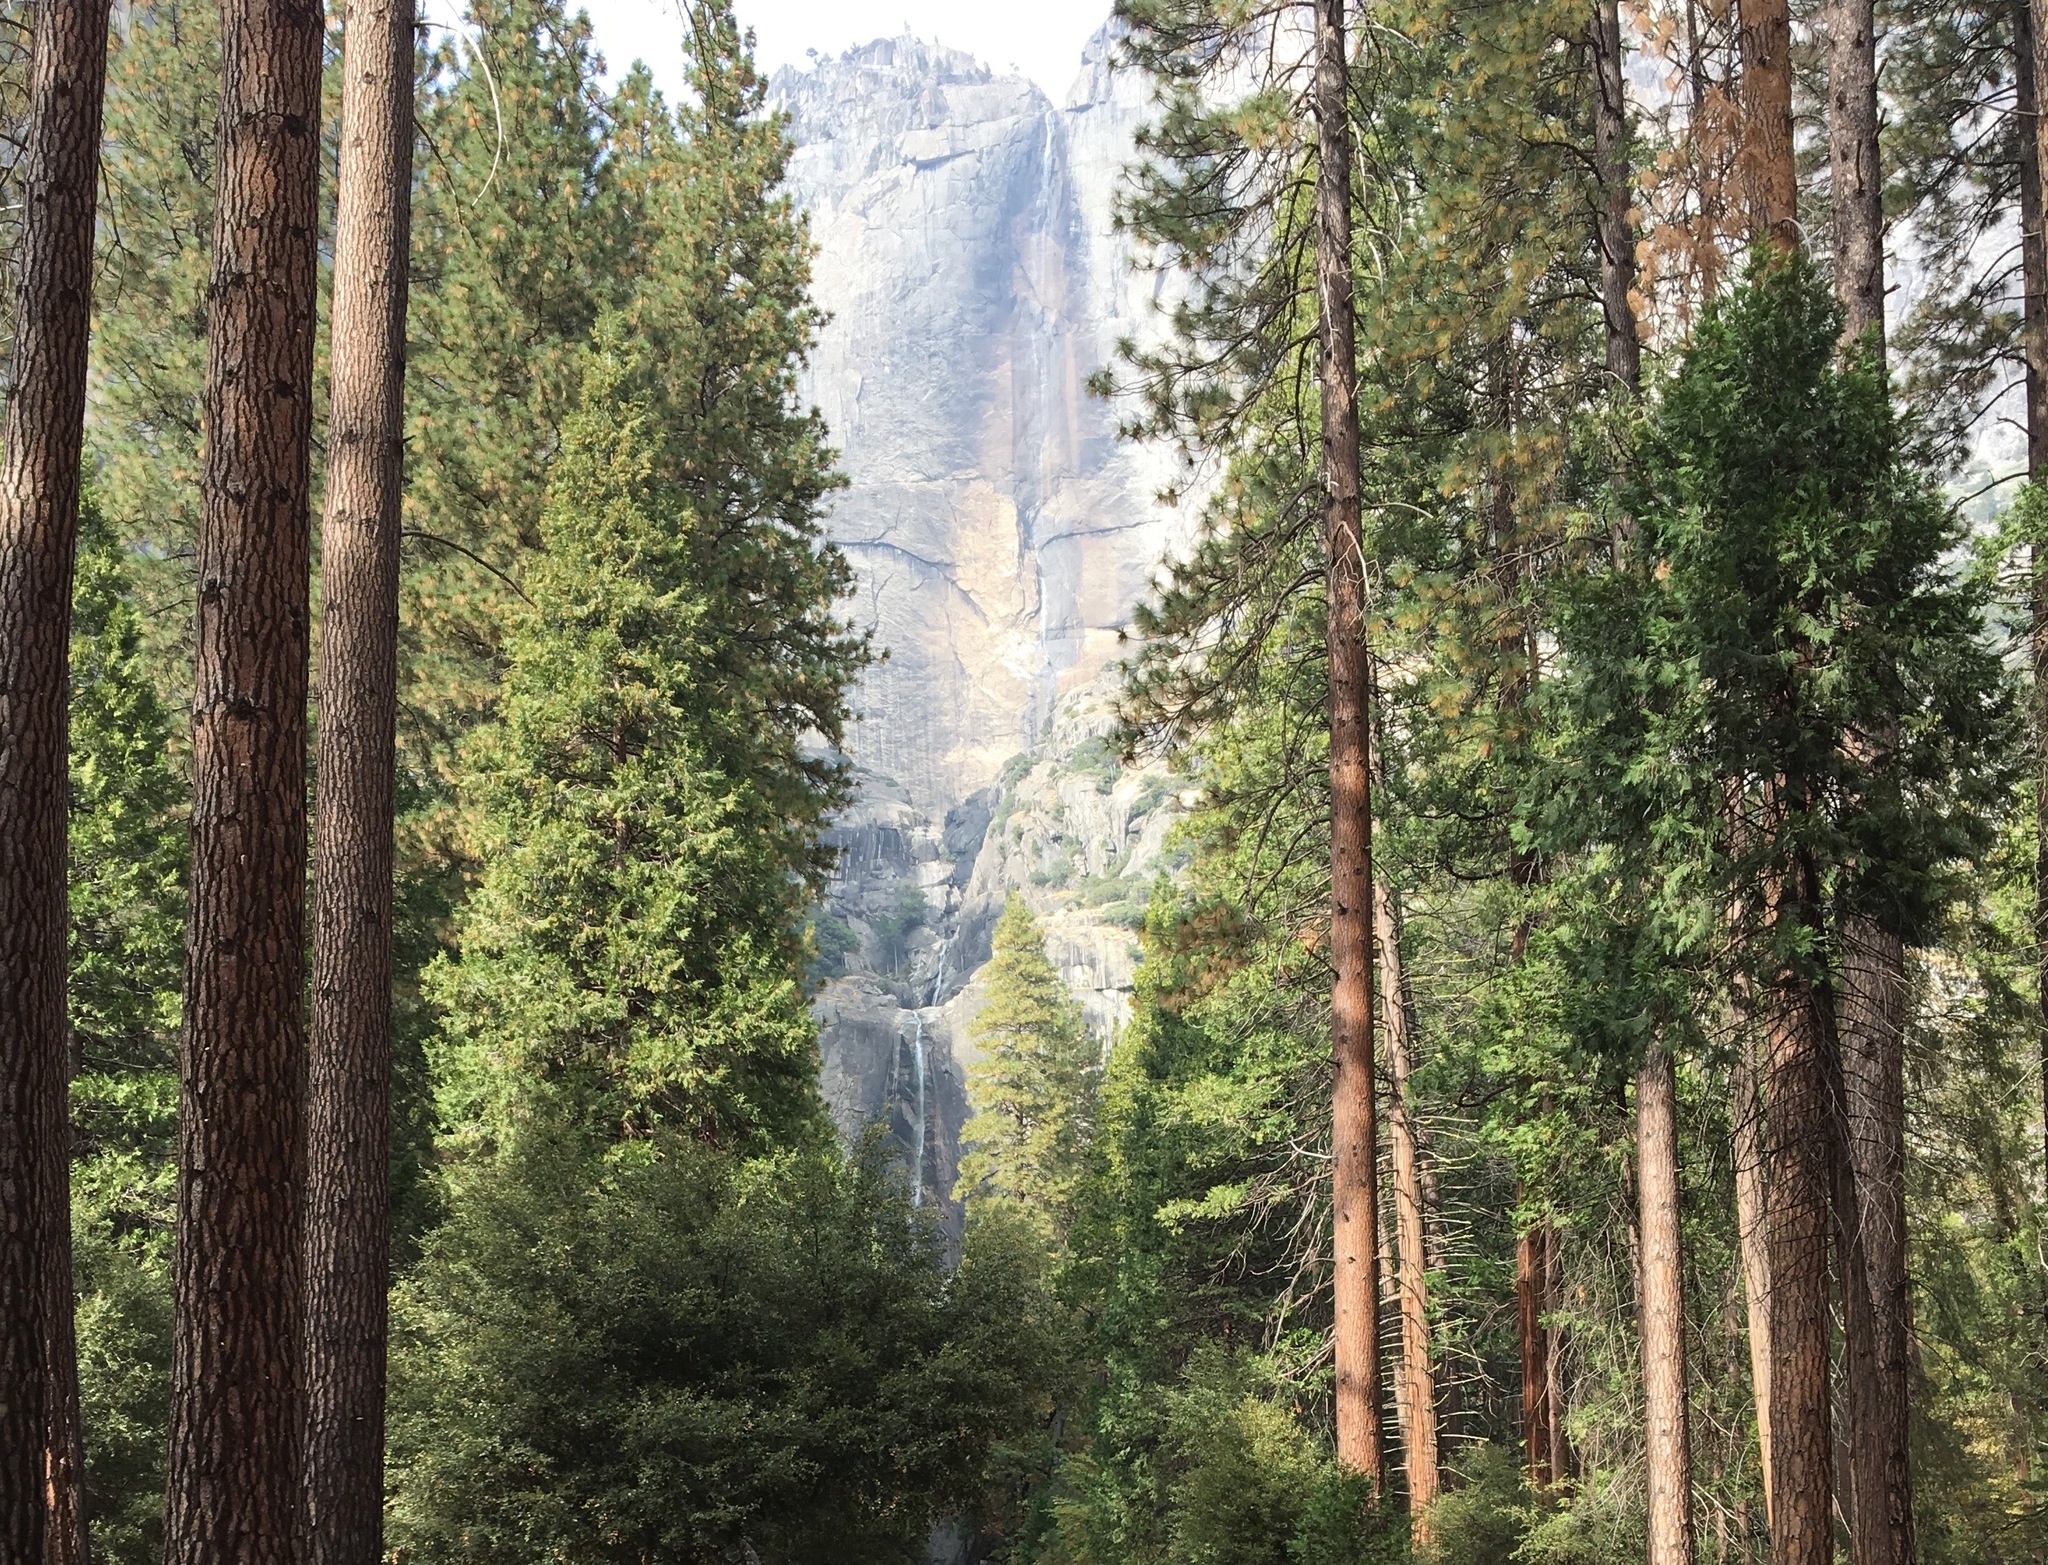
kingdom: Plantae
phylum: Tracheophyta
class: Pinopsida
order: Pinales
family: Pinaceae
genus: Pinus
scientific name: Pinus ponderosa
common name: Western yellow-pine
